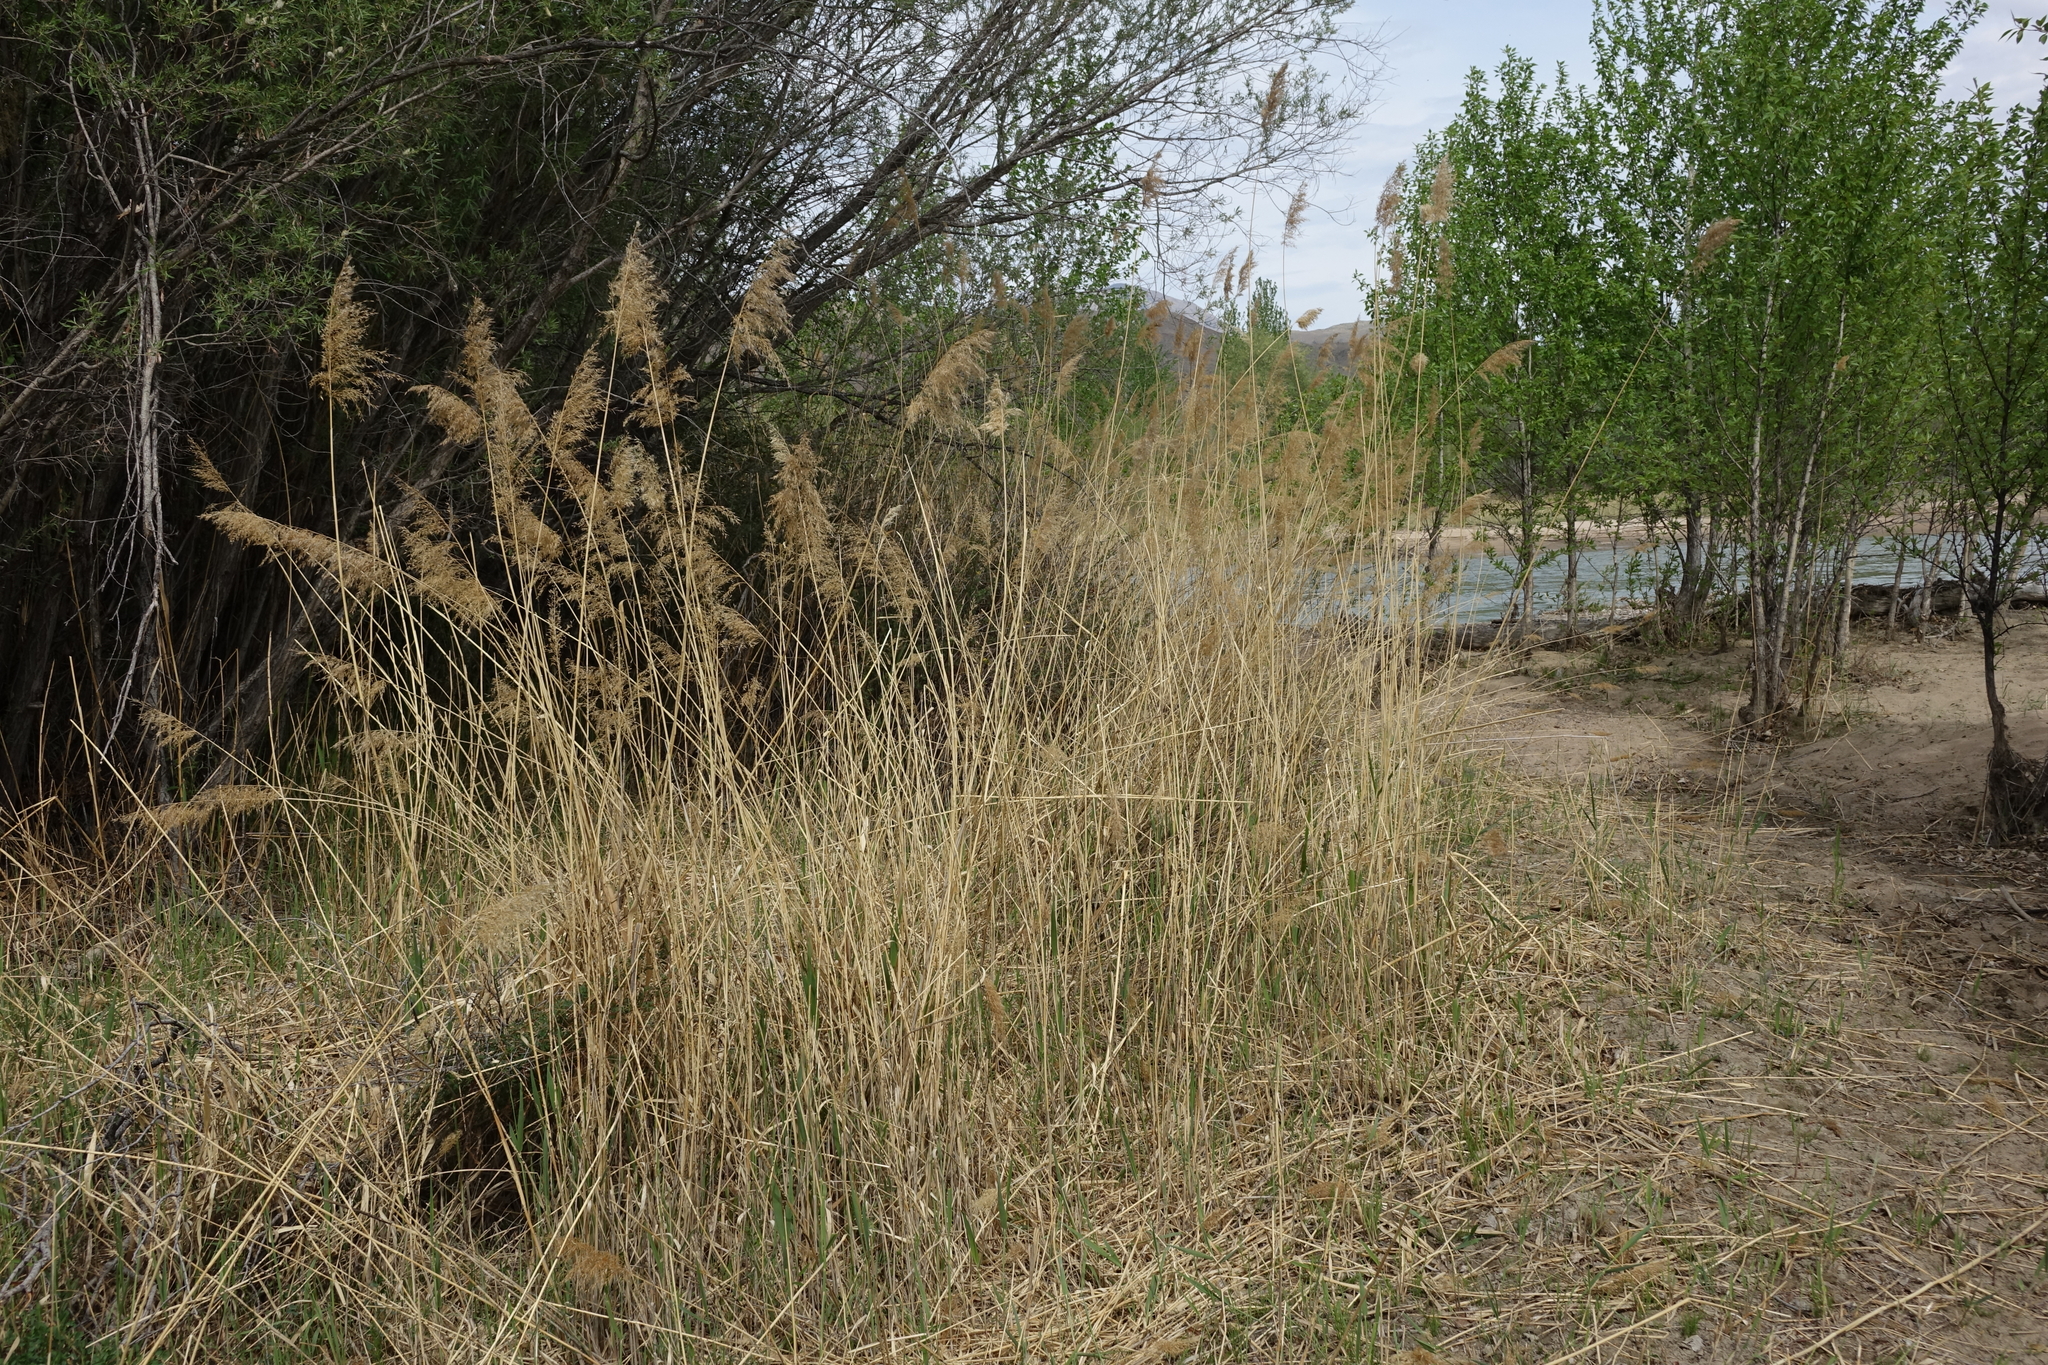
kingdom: Plantae
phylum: Tracheophyta
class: Liliopsida
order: Poales
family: Poaceae
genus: Phragmites
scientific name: Phragmites australis
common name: Common reed
